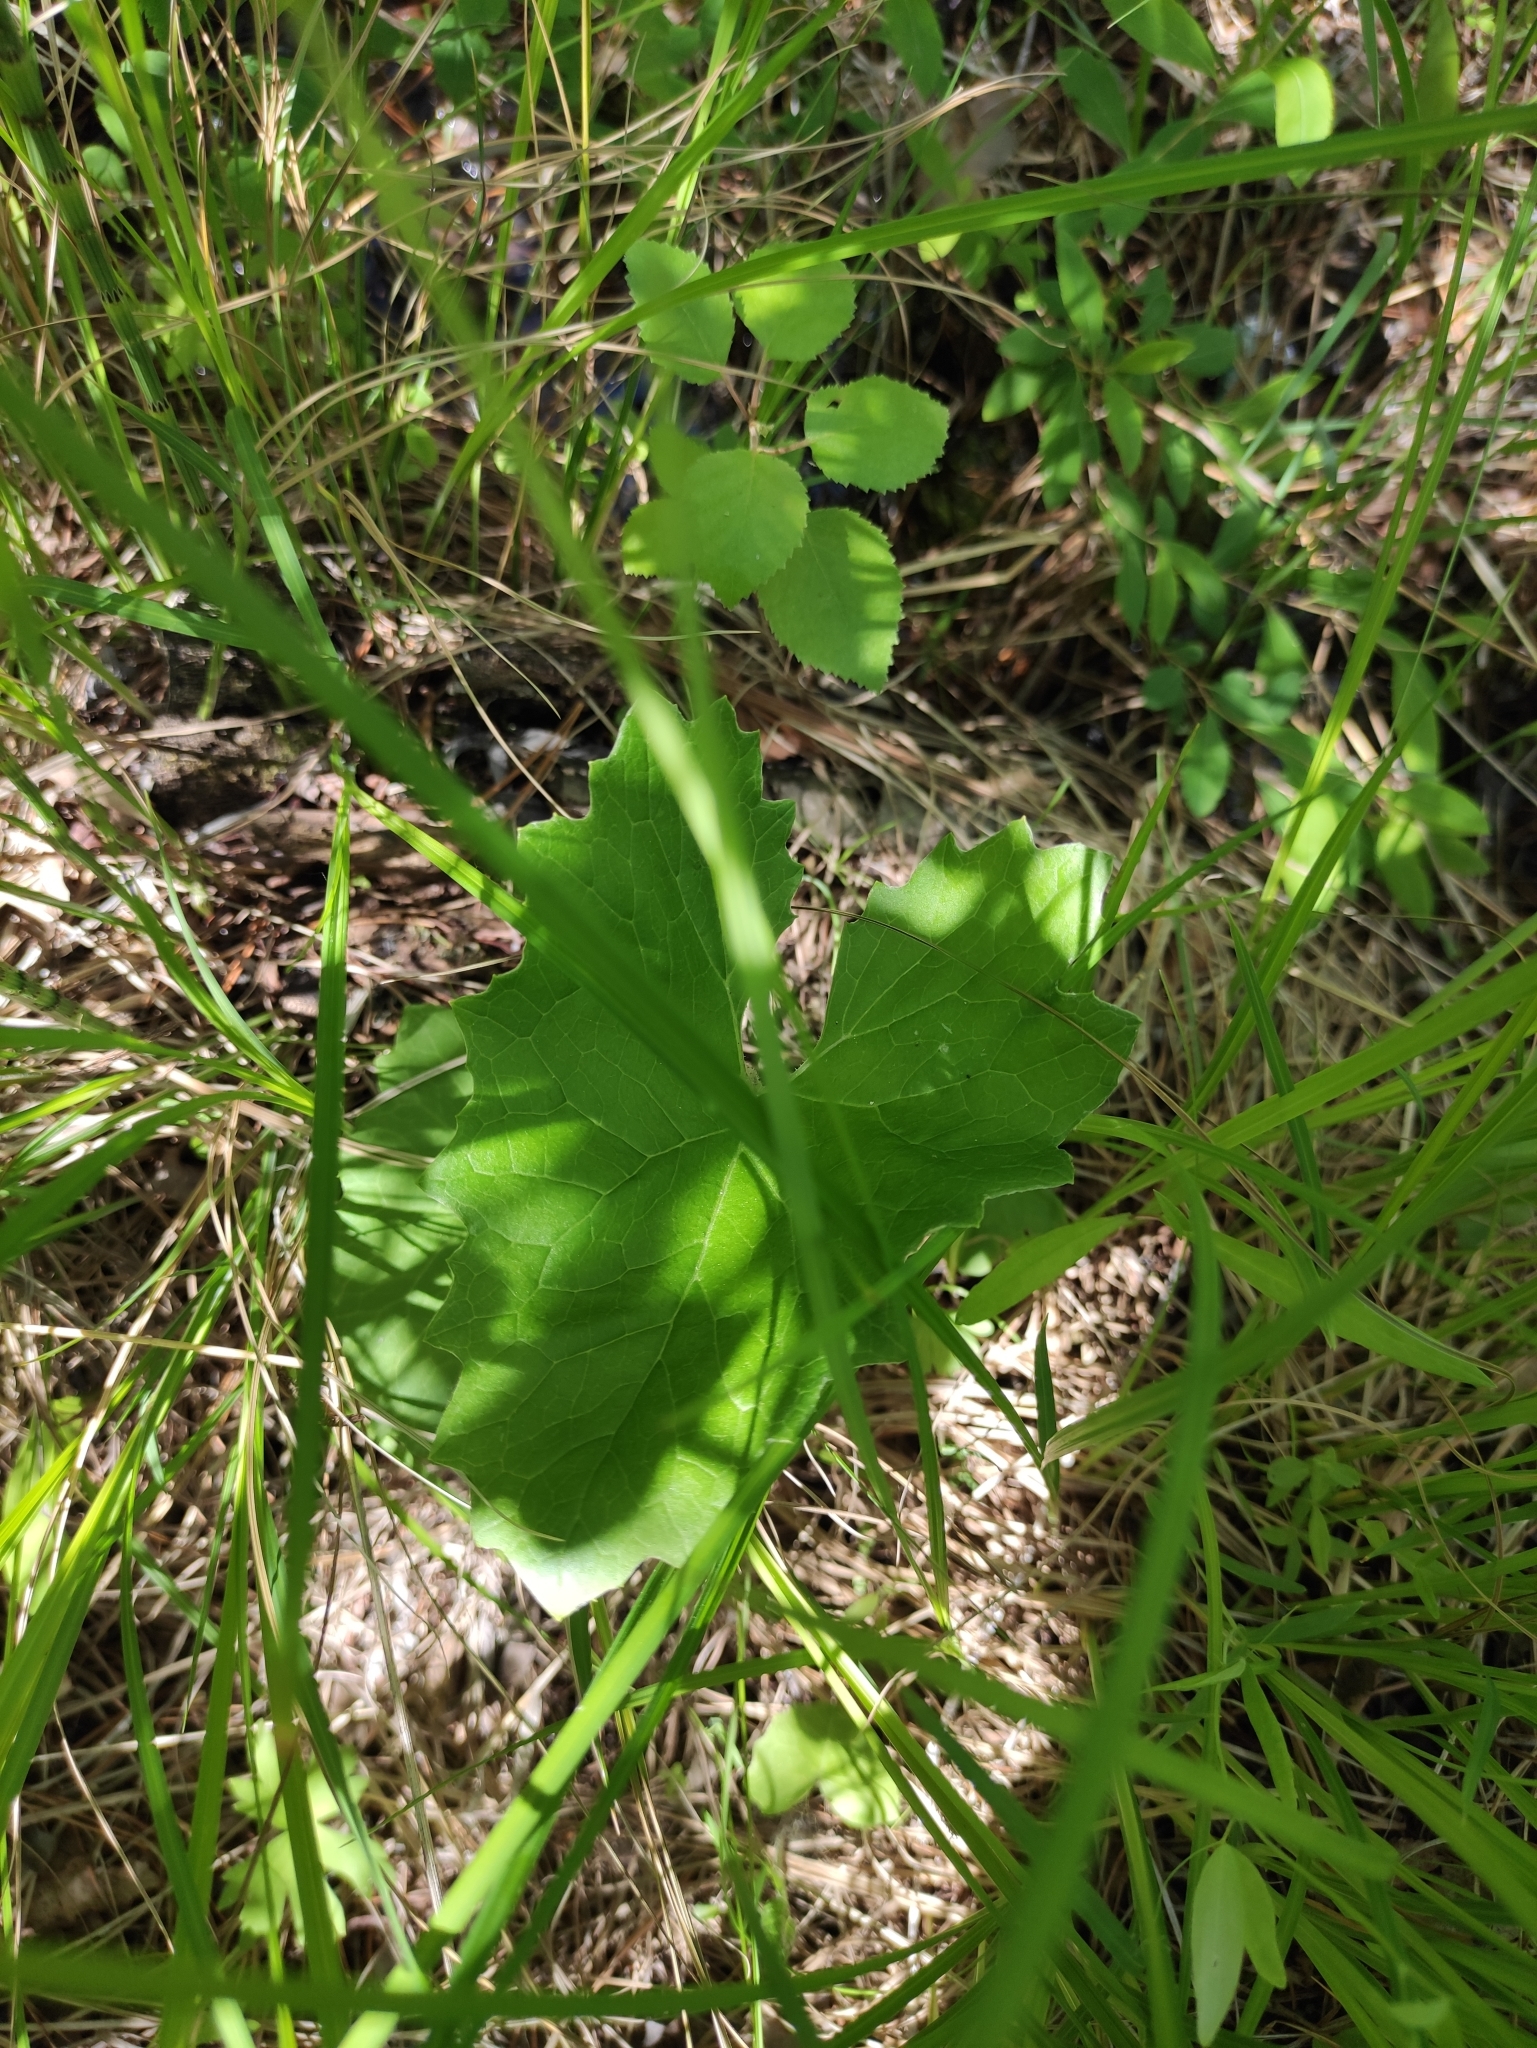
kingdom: Plantae
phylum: Tracheophyta
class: Magnoliopsida
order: Asterales
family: Asteraceae
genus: Petasites
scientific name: Petasites frigidus
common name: Arctic butterbur
